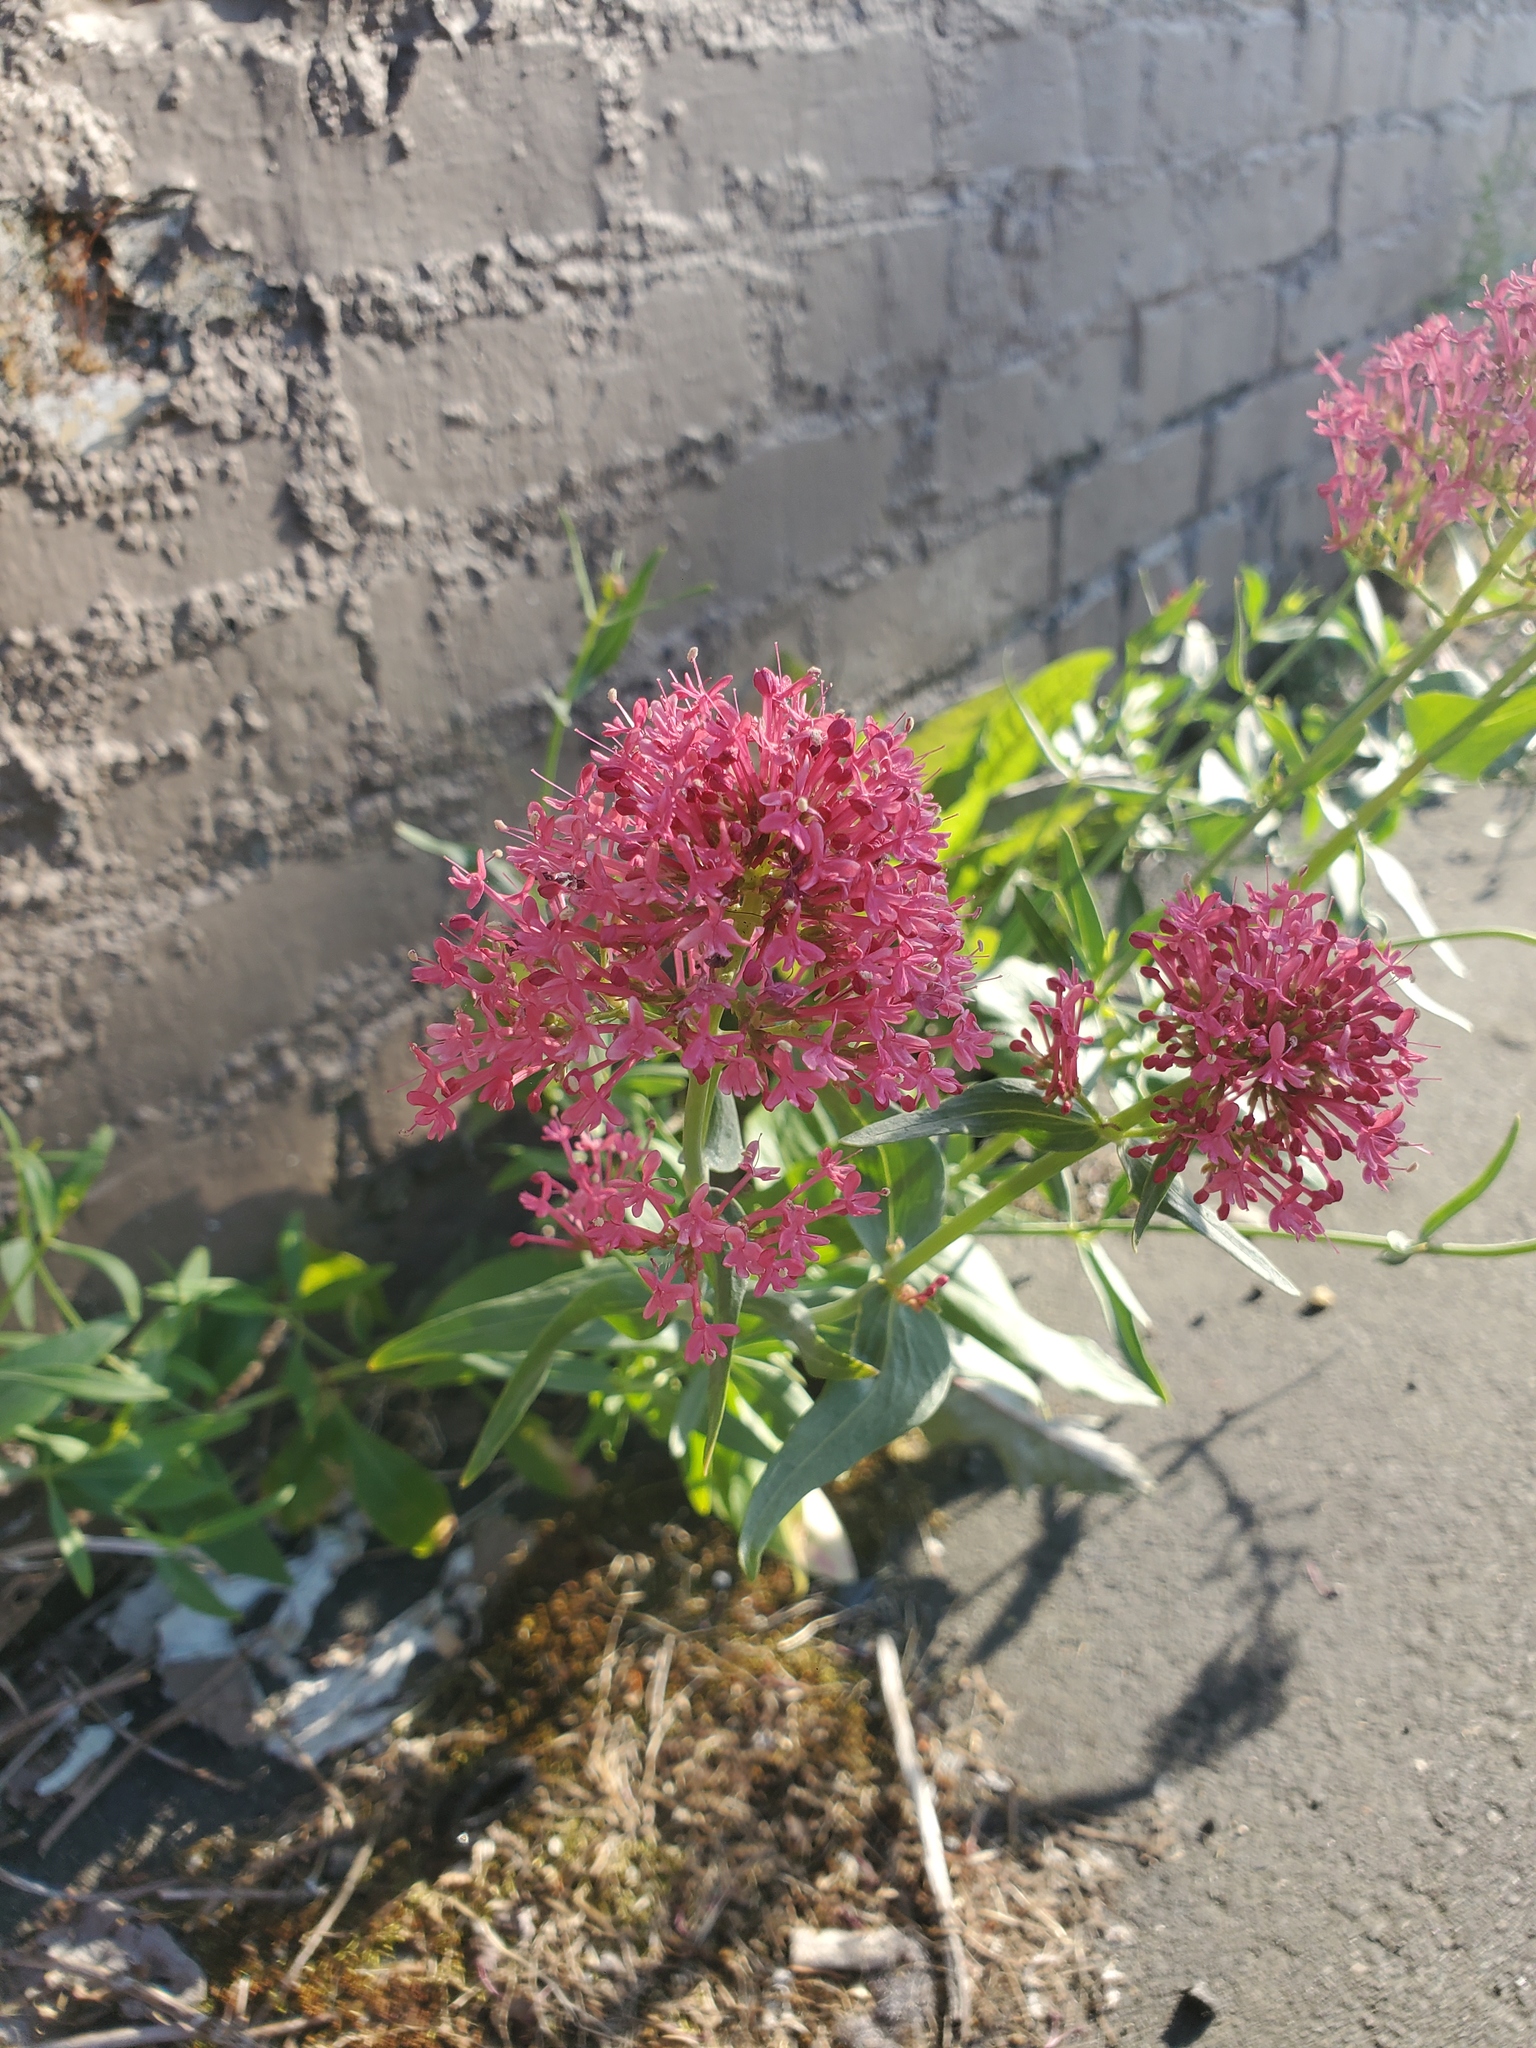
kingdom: Plantae
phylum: Tracheophyta
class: Magnoliopsida
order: Dipsacales
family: Caprifoliaceae
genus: Centranthus
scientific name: Centranthus ruber
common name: Red valerian
